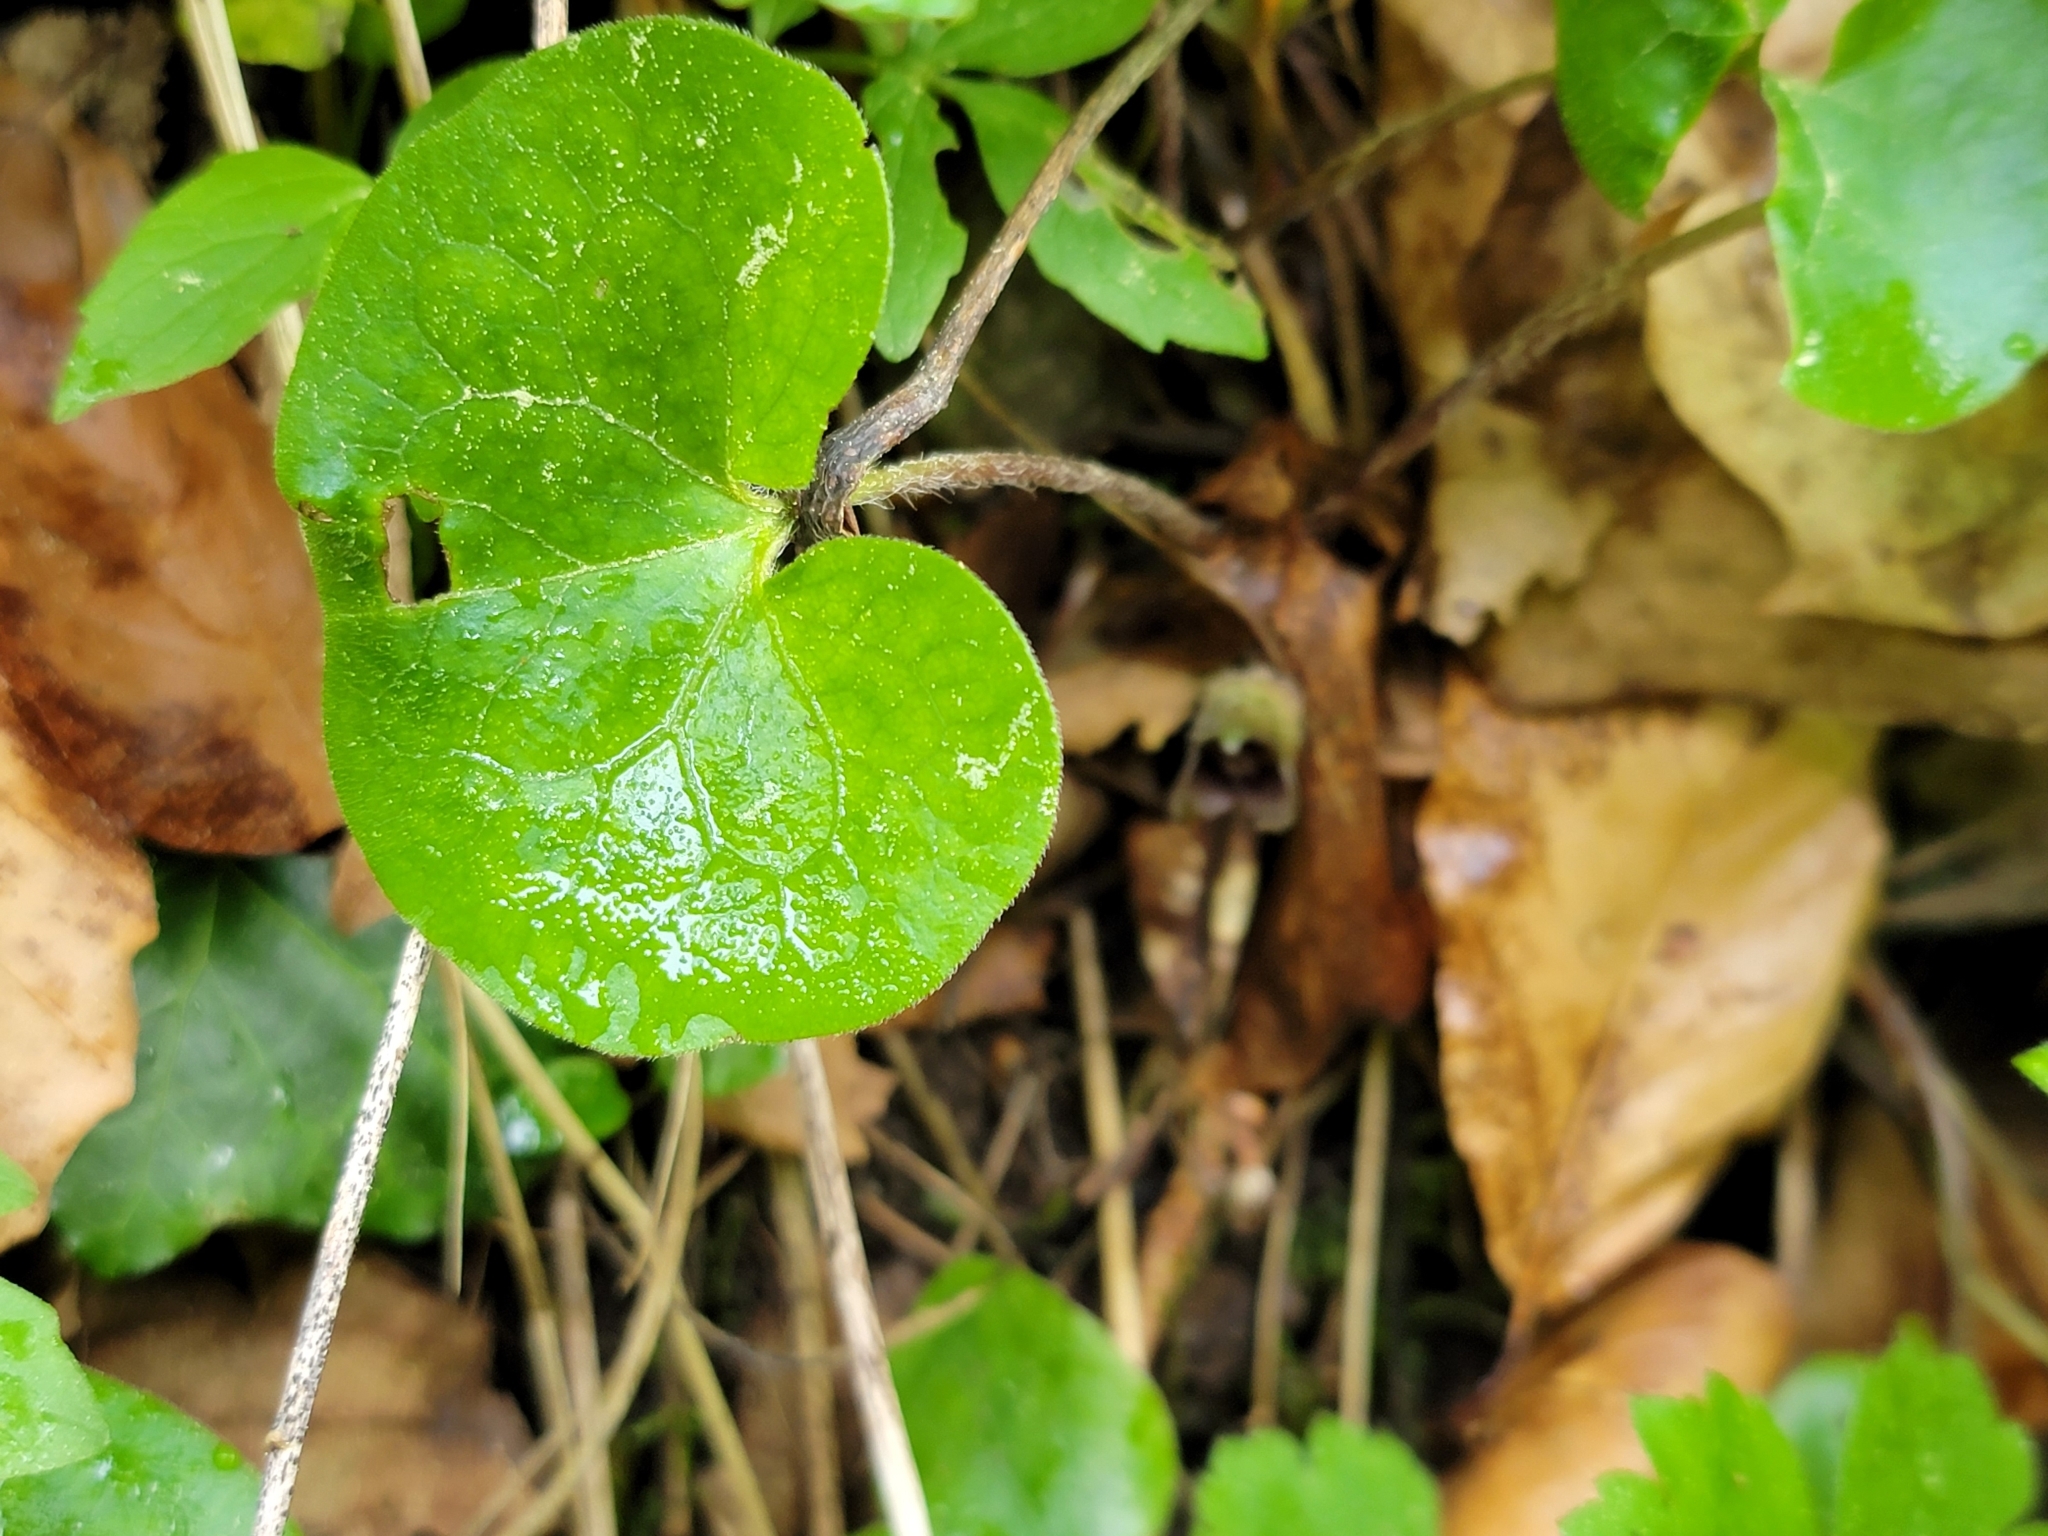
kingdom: Plantae
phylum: Tracheophyta
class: Magnoliopsida
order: Piperales
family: Aristolochiaceae
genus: Asarum
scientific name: Asarum europaeum
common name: Asarabacca
